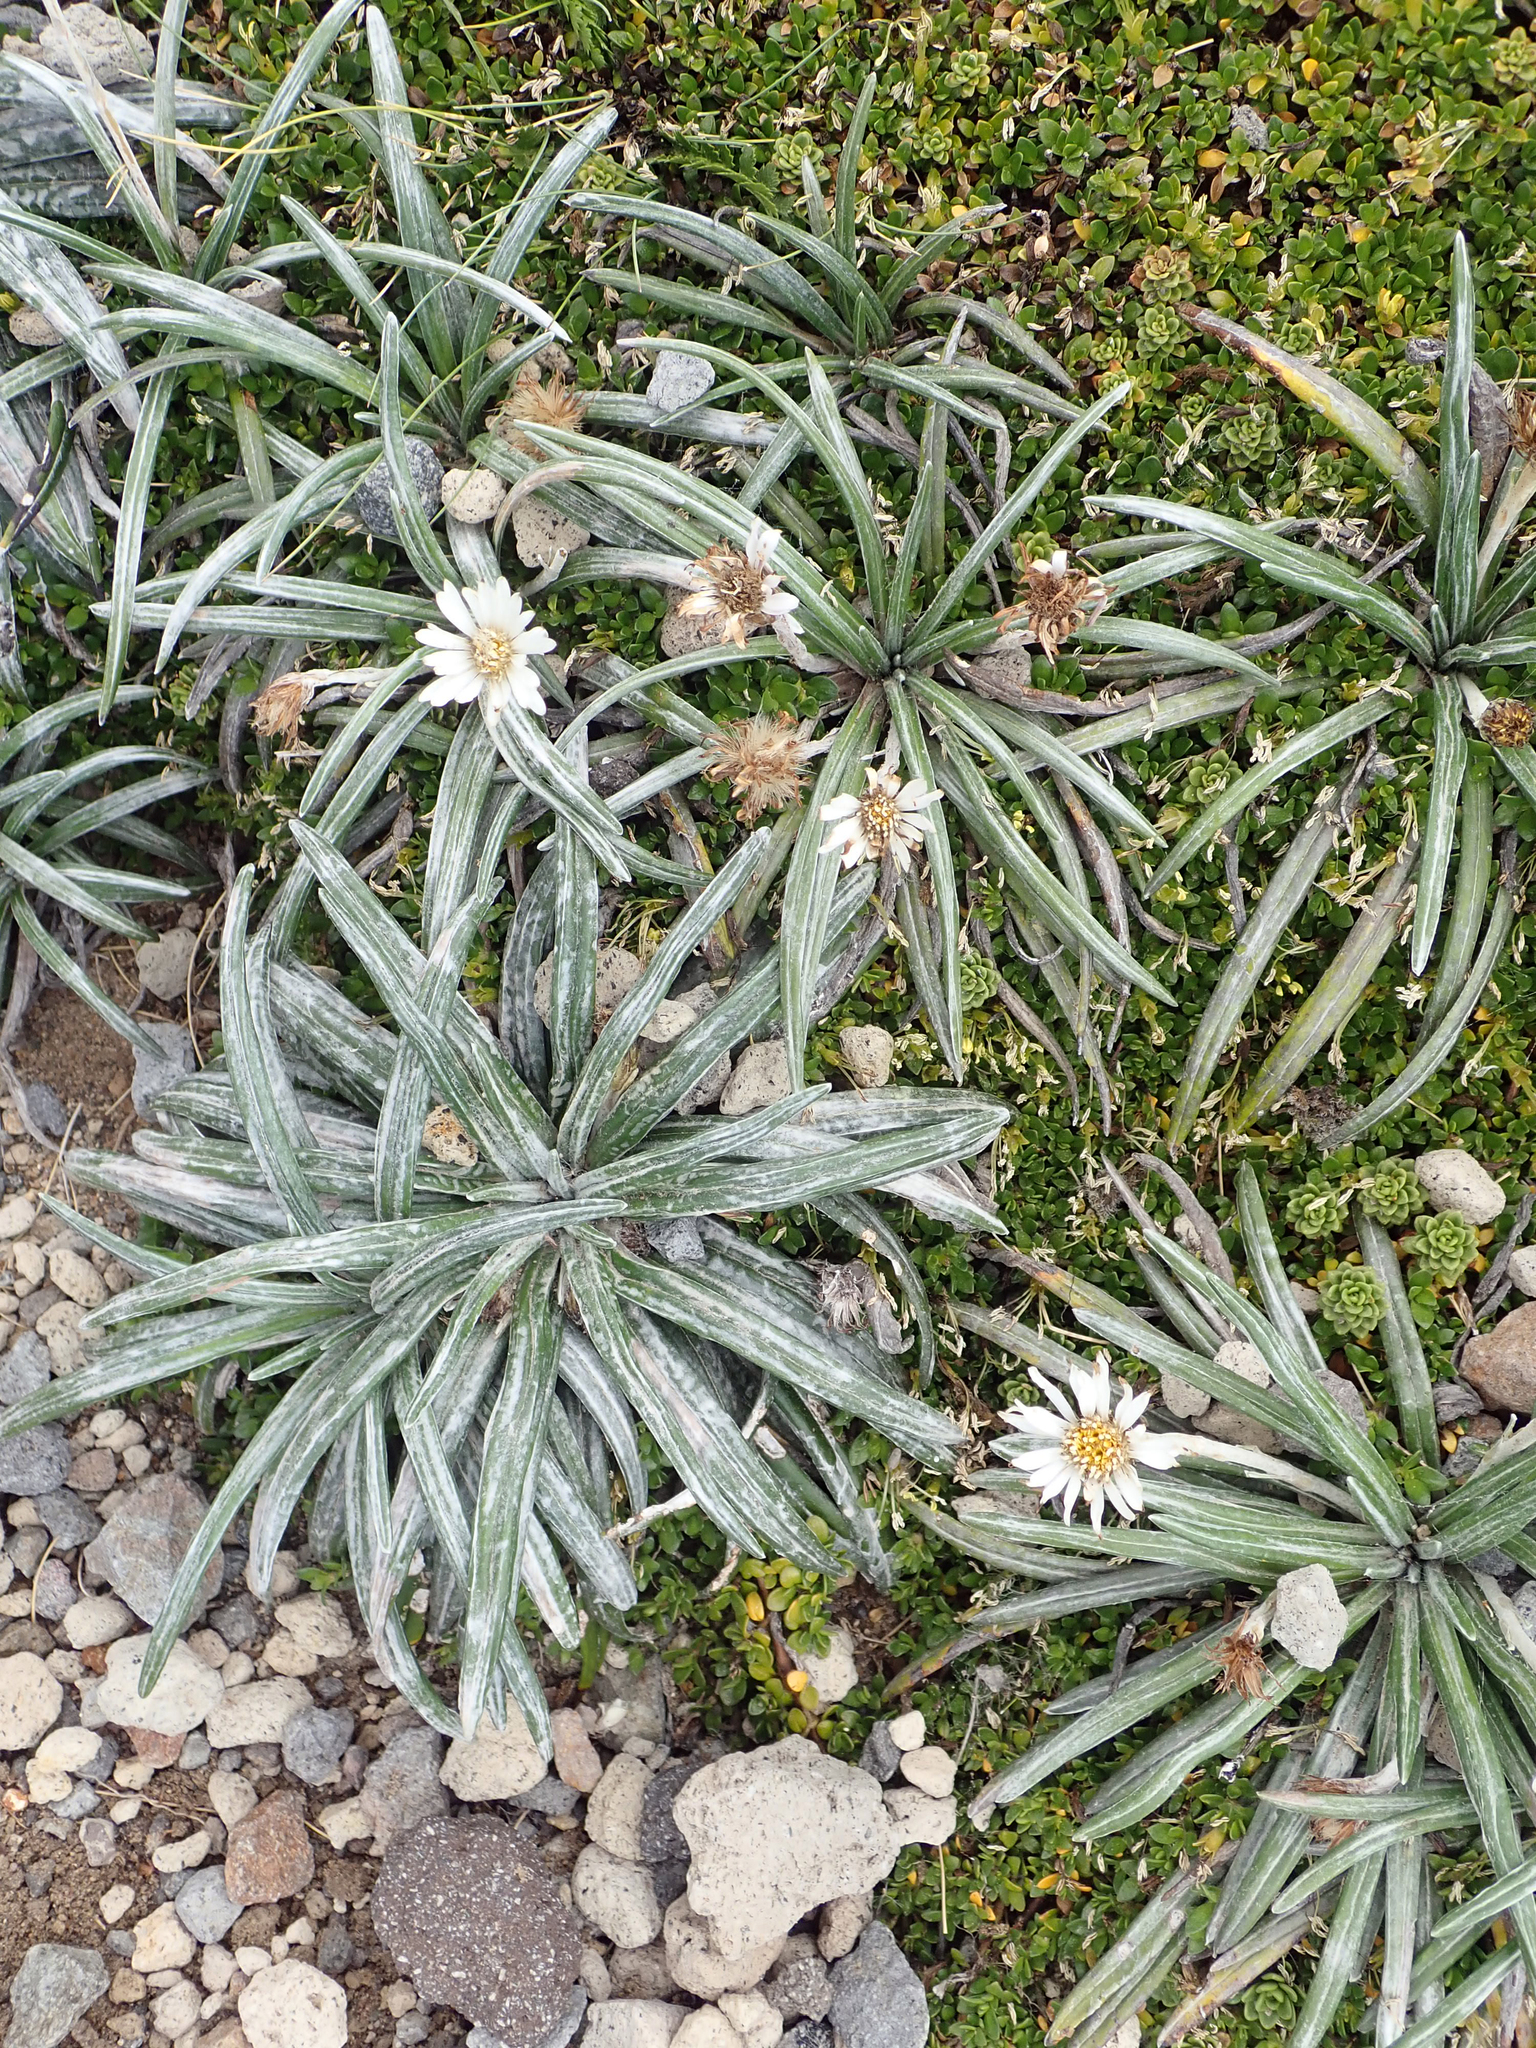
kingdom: Plantae
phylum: Tracheophyta
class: Magnoliopsida
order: Asterales
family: Asteraceae
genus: Celmisia
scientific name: Celmisia major
